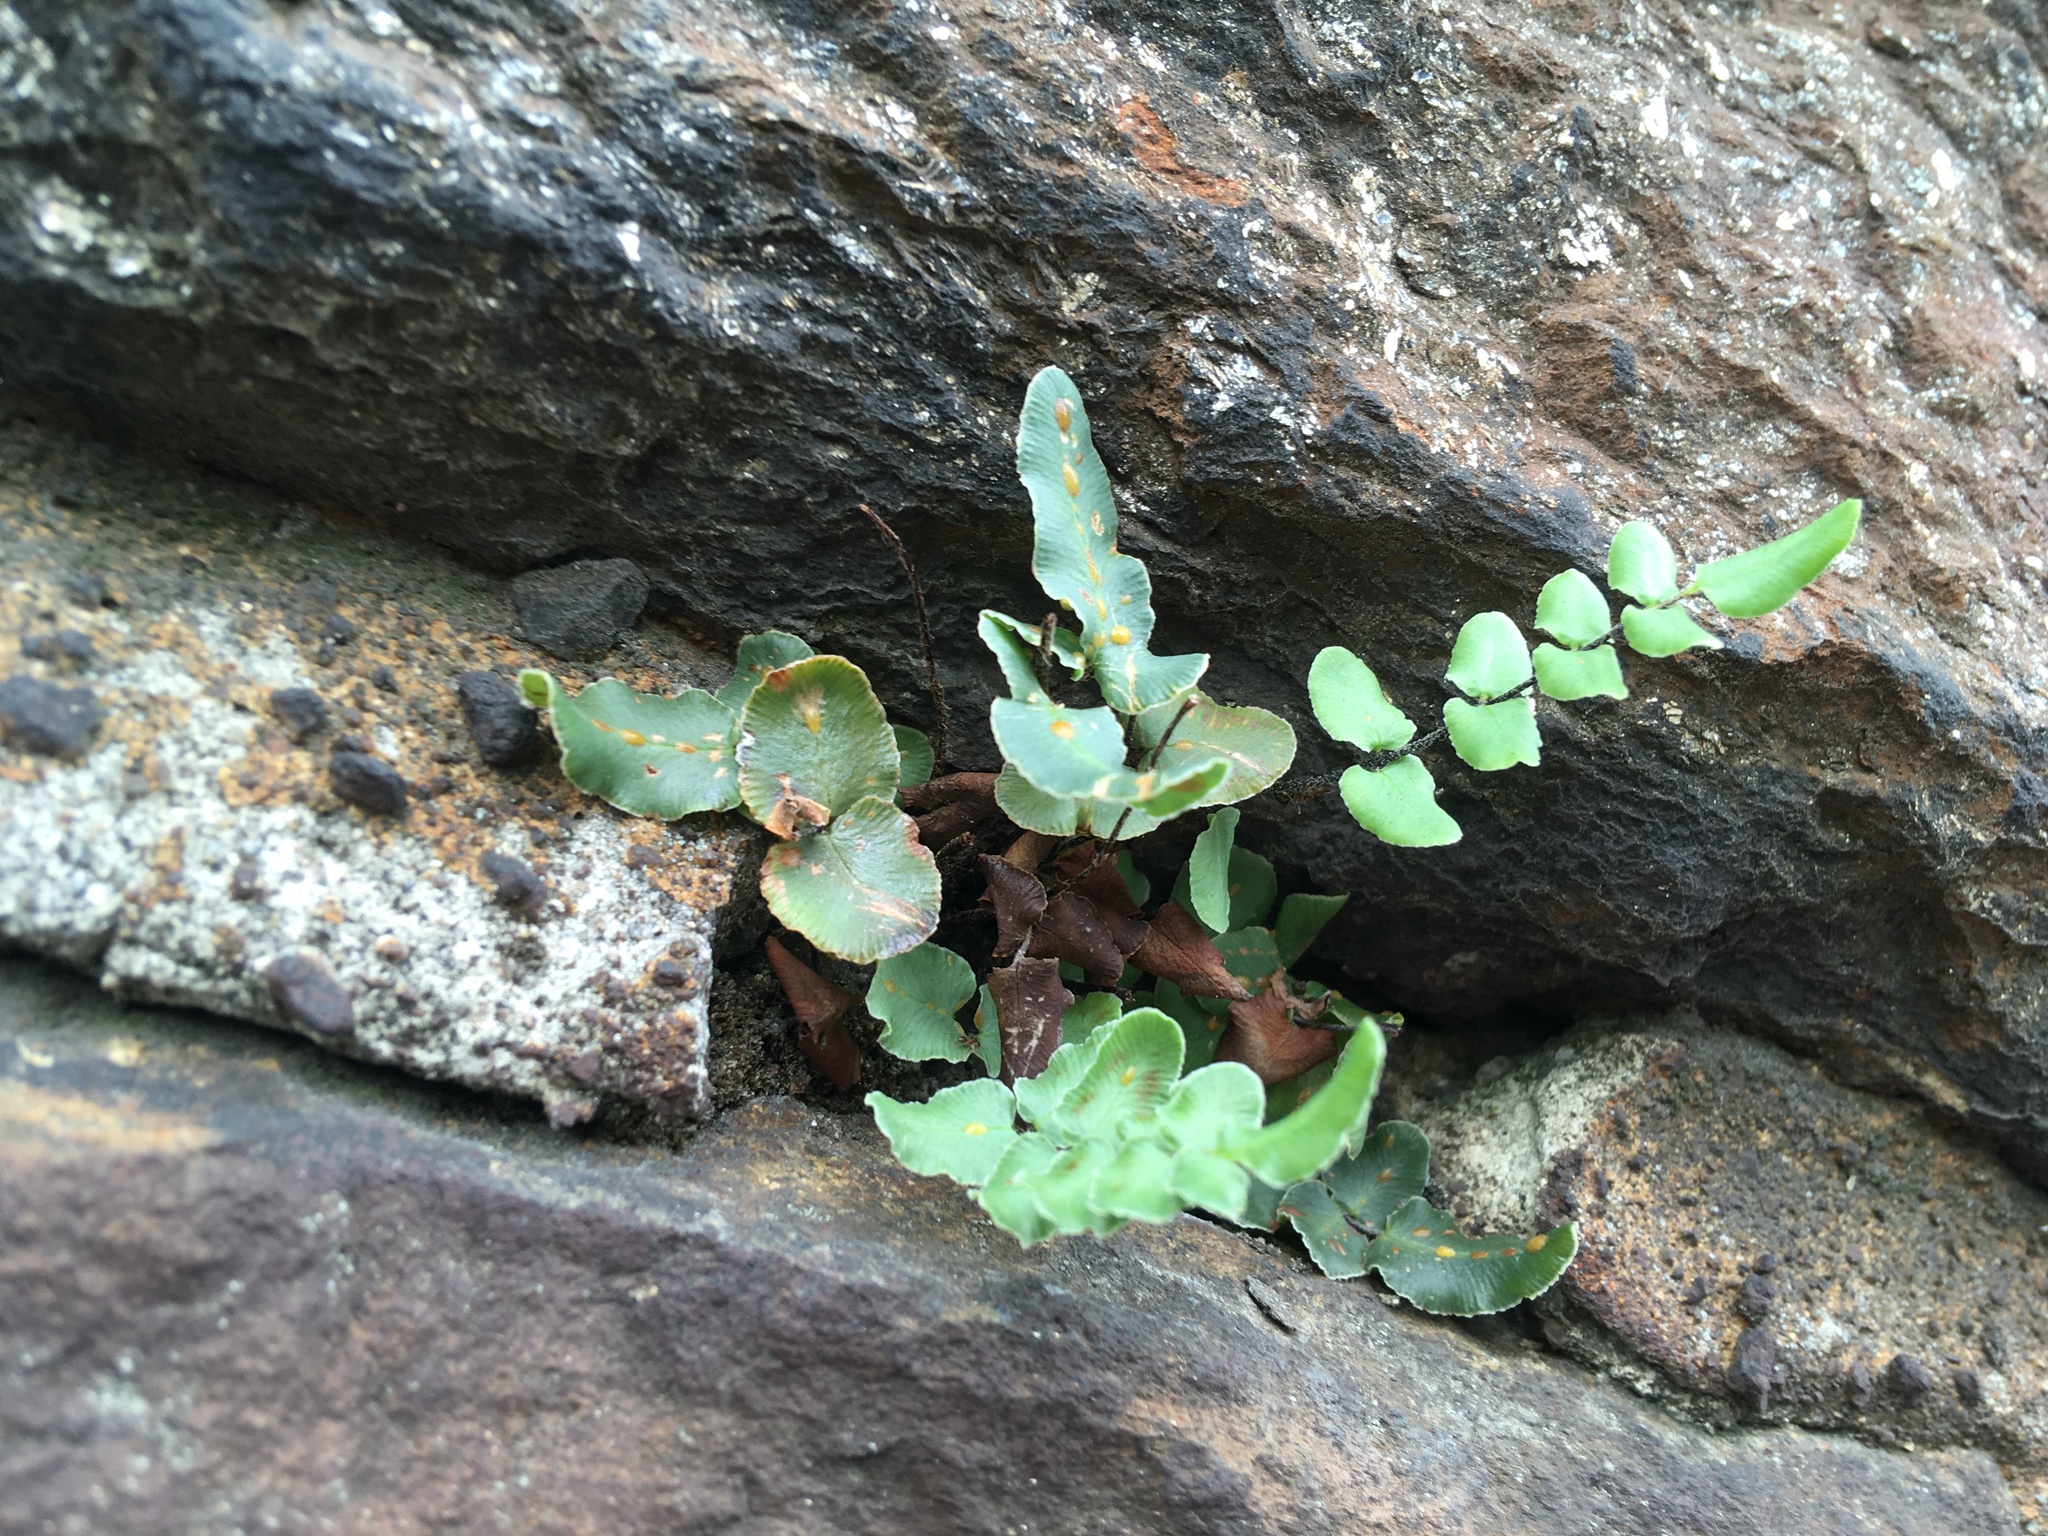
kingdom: Plantae
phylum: Tracheophyta
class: Polypodiopsida
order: Polypodiales
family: Pteridaceae
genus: Pellaea
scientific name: Pellaea atropurpurea
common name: Hairy cliffbrake
